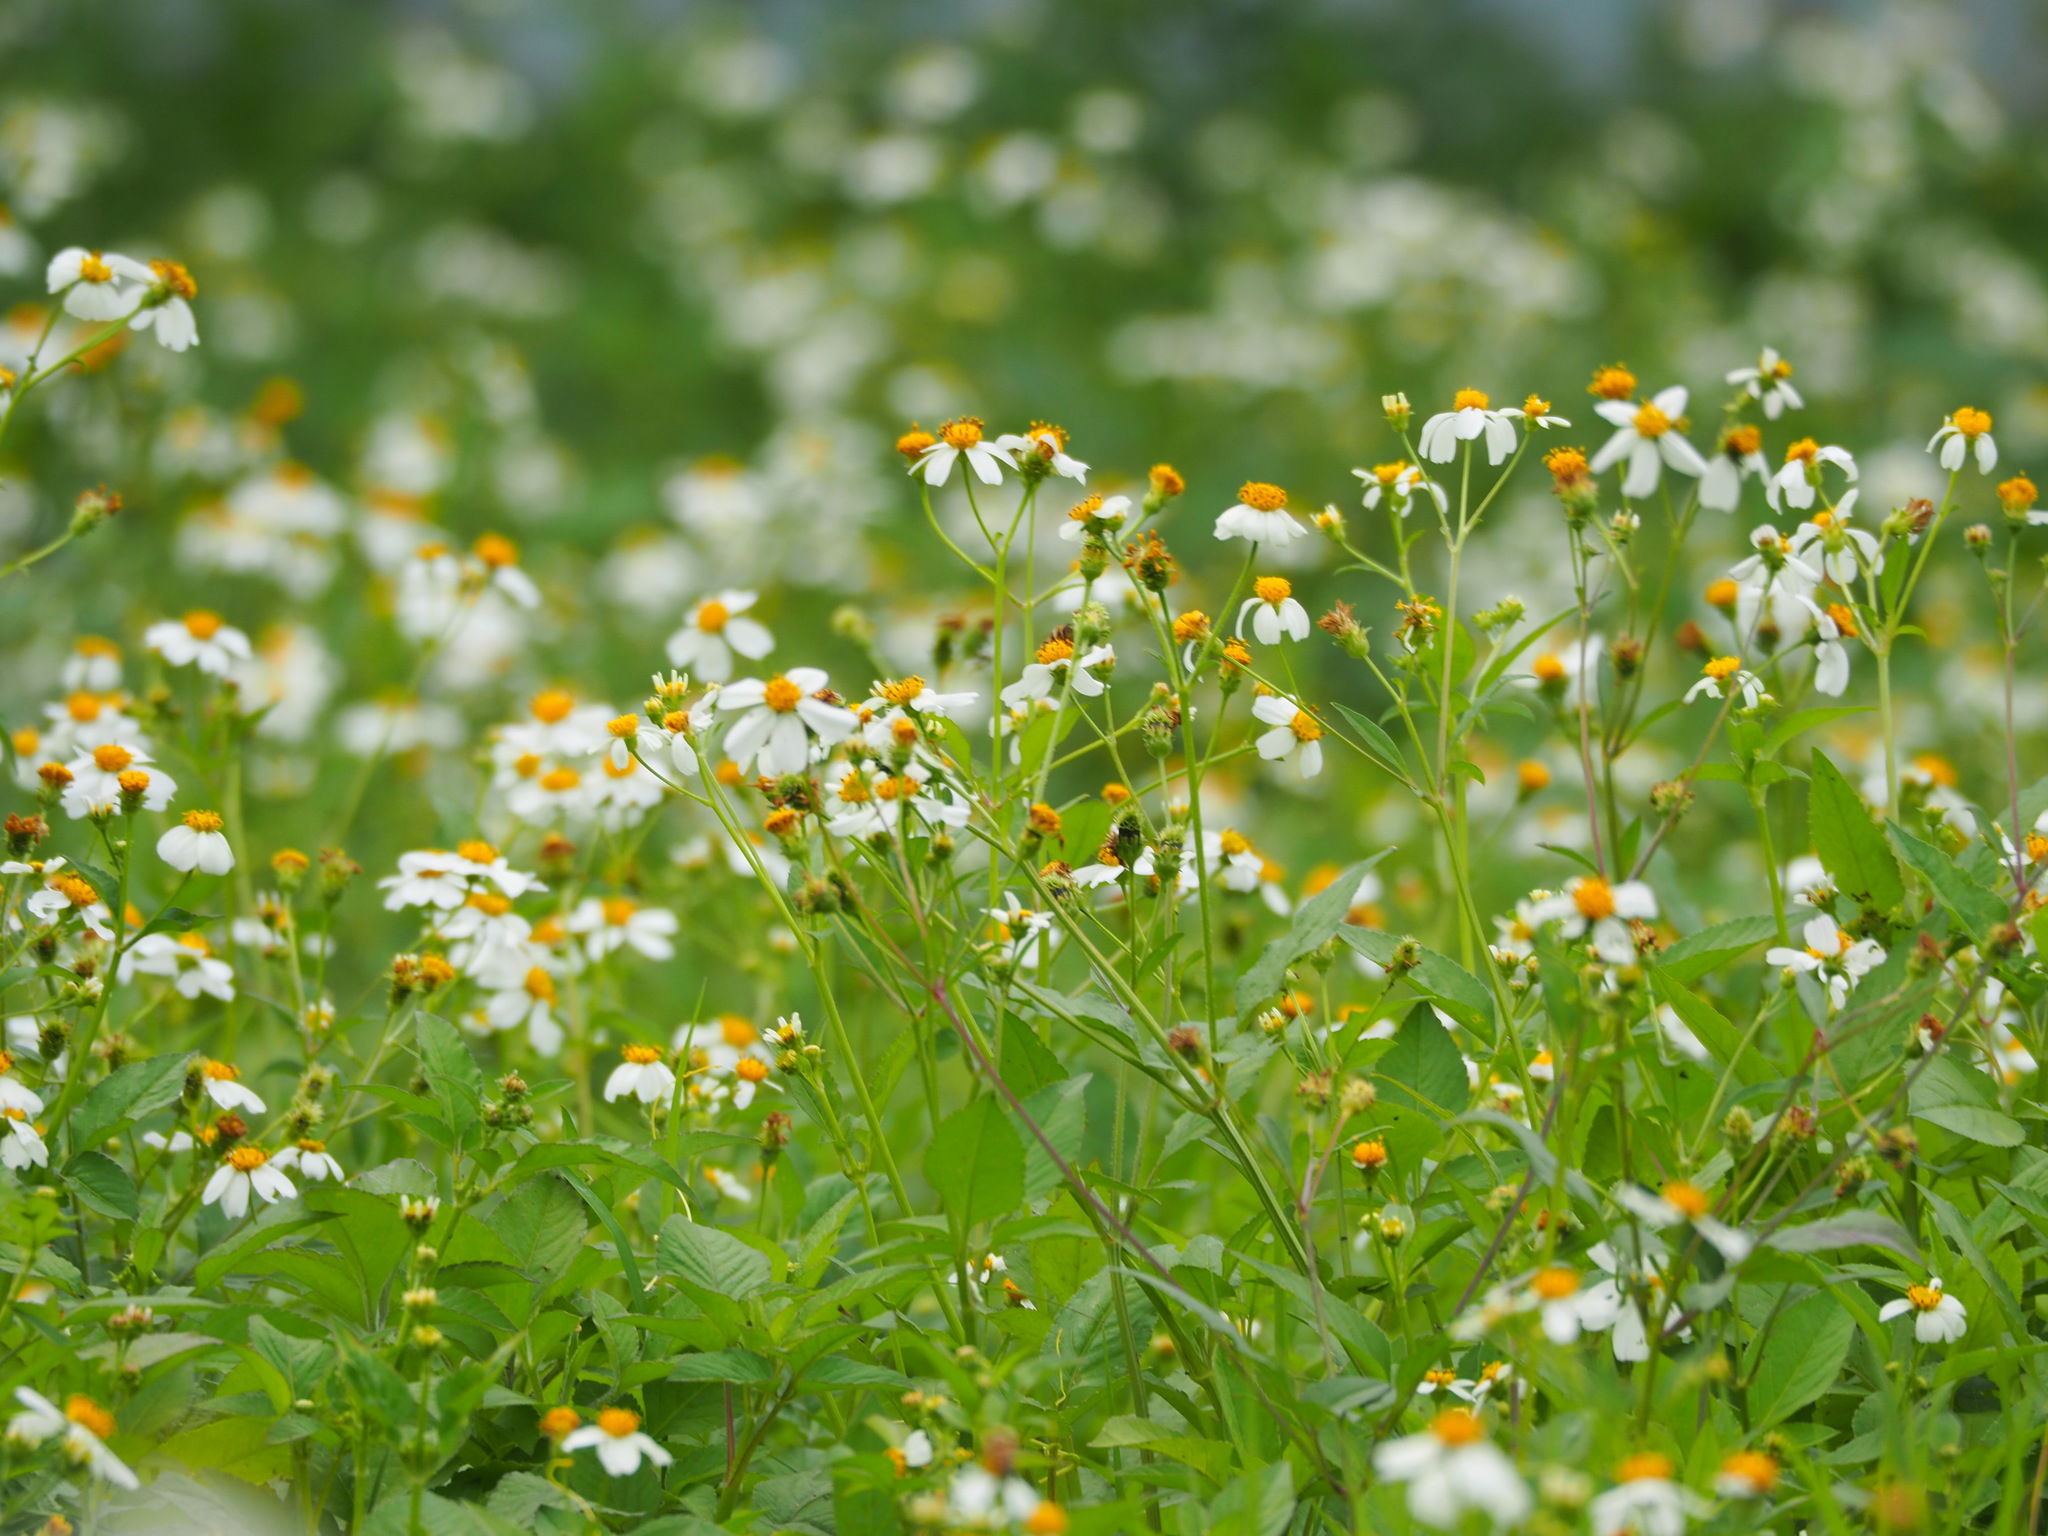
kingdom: Plantae
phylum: Tracheophyta
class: Magnoliopsida
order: Asterales
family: Asteraceae
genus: Bidens
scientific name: Bidens alba
